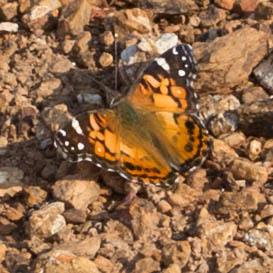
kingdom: Animalia
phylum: Arthropoda
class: Insecta
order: Lepidoptera
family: Nymphalidae
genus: Vanessa
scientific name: Vanessa virginiensis
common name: American lady
